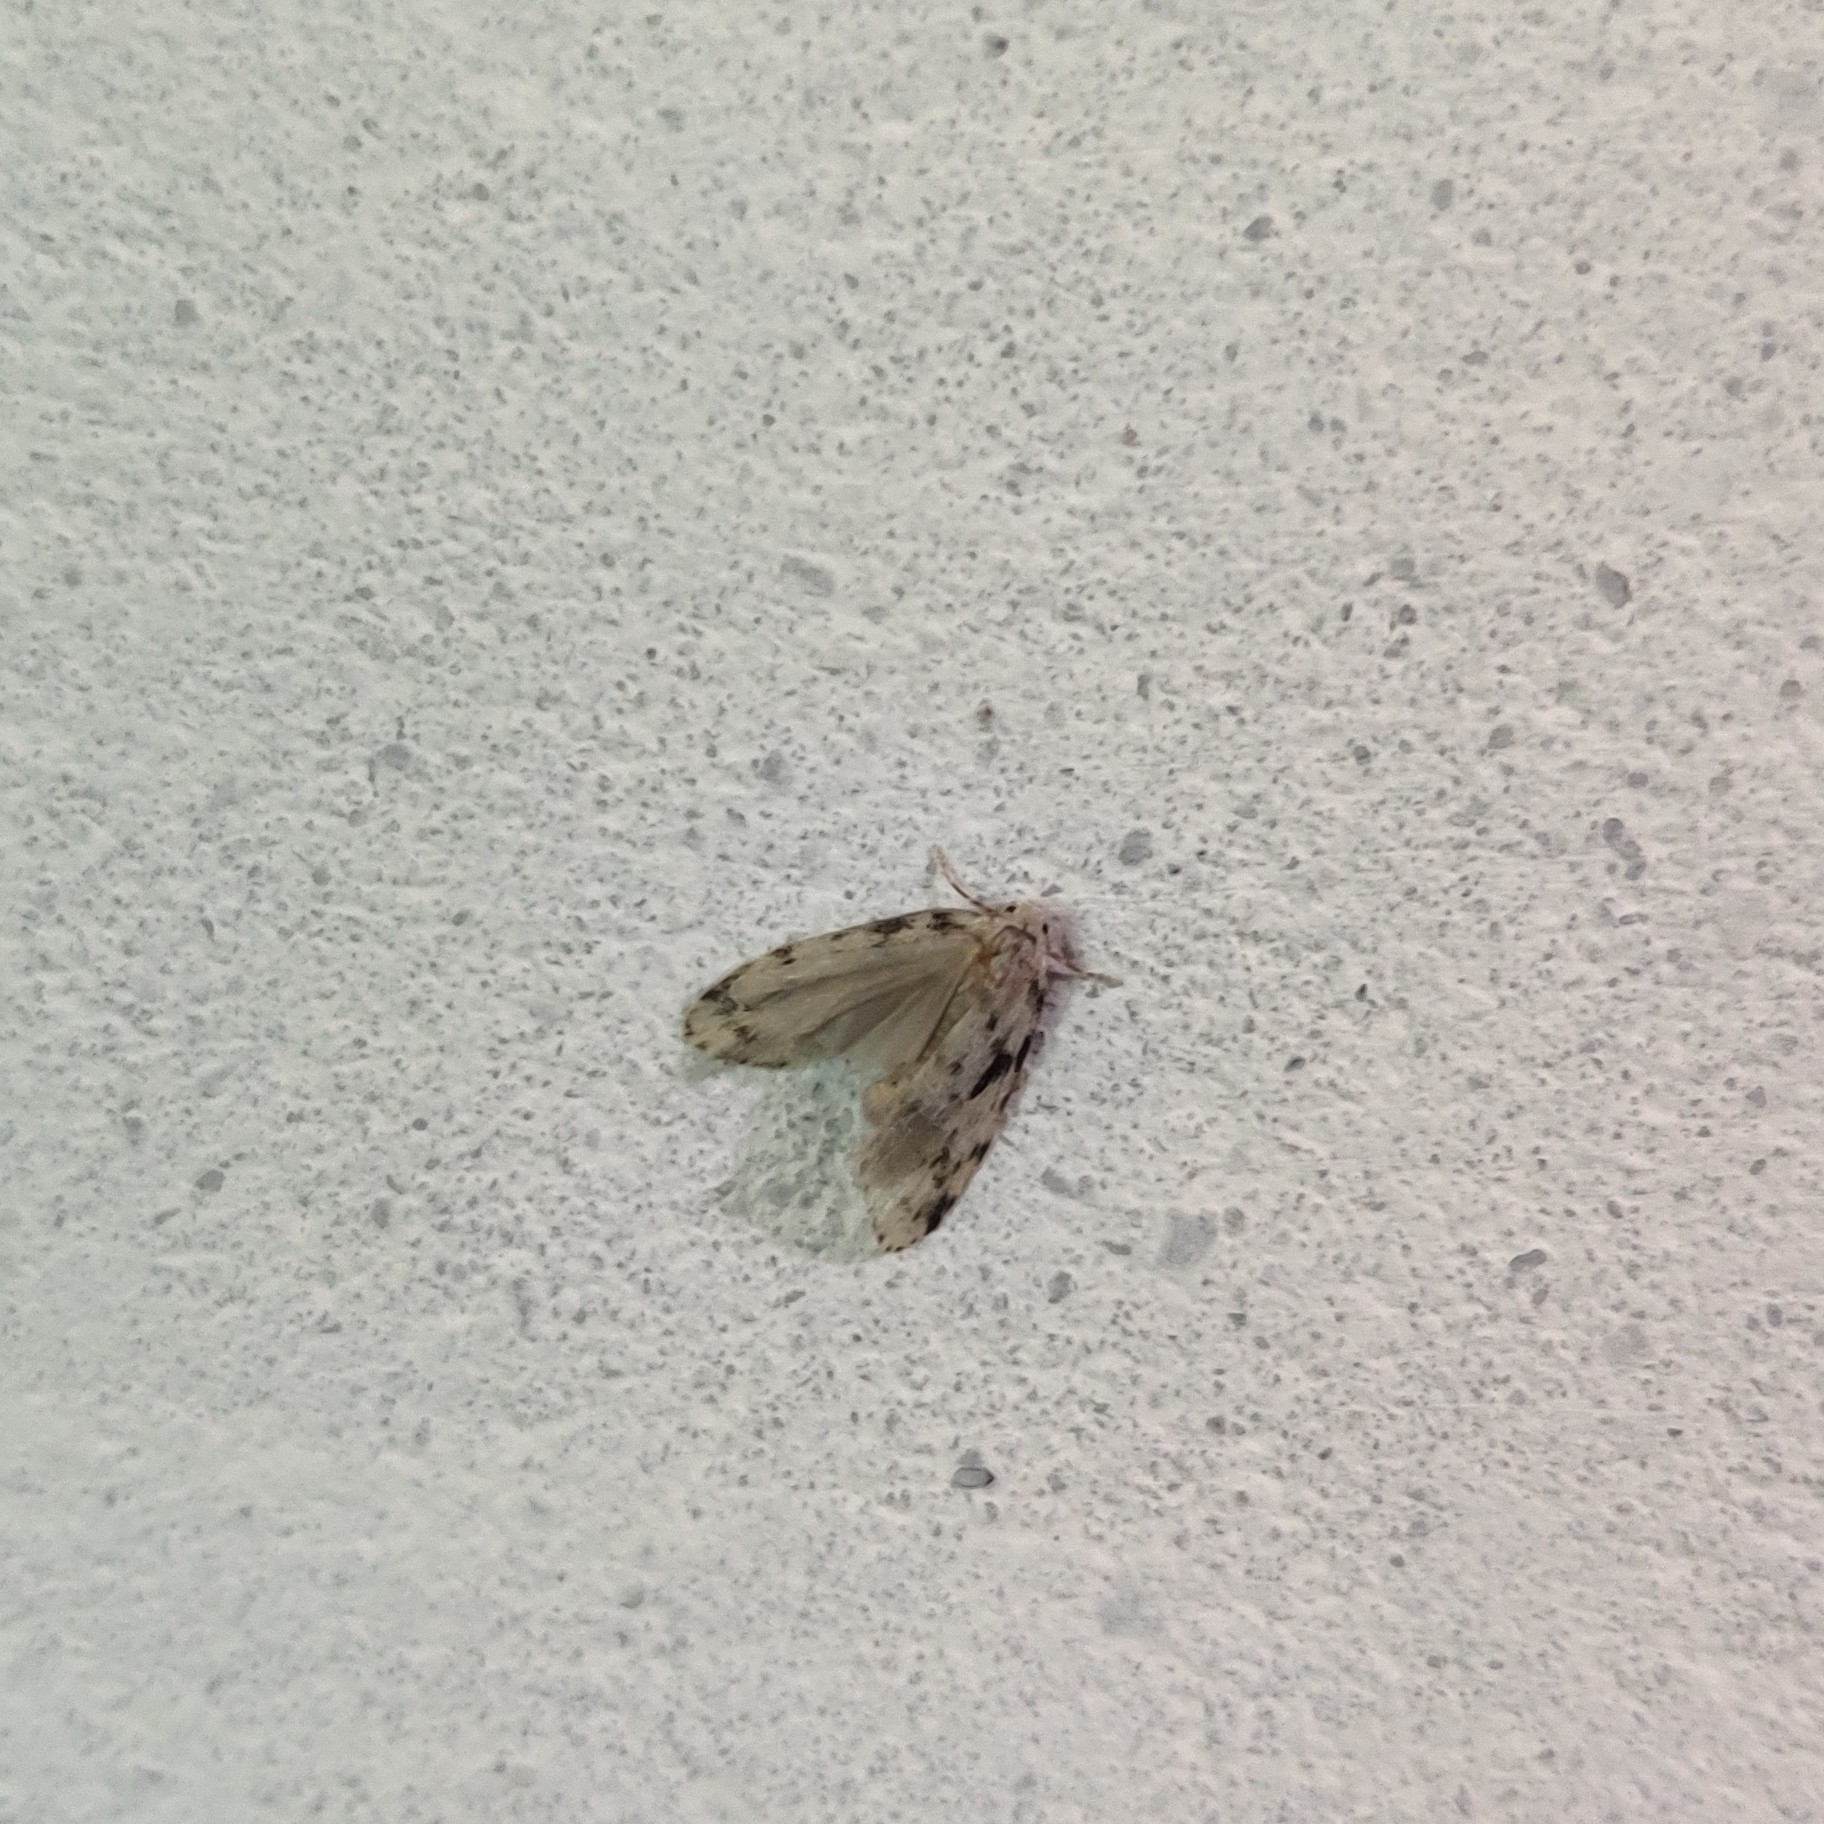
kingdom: Animalia
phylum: Arthropoda
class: Insecta
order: Lepidoptera
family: Erebidae
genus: Siccia
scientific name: Siccia sagittifera
